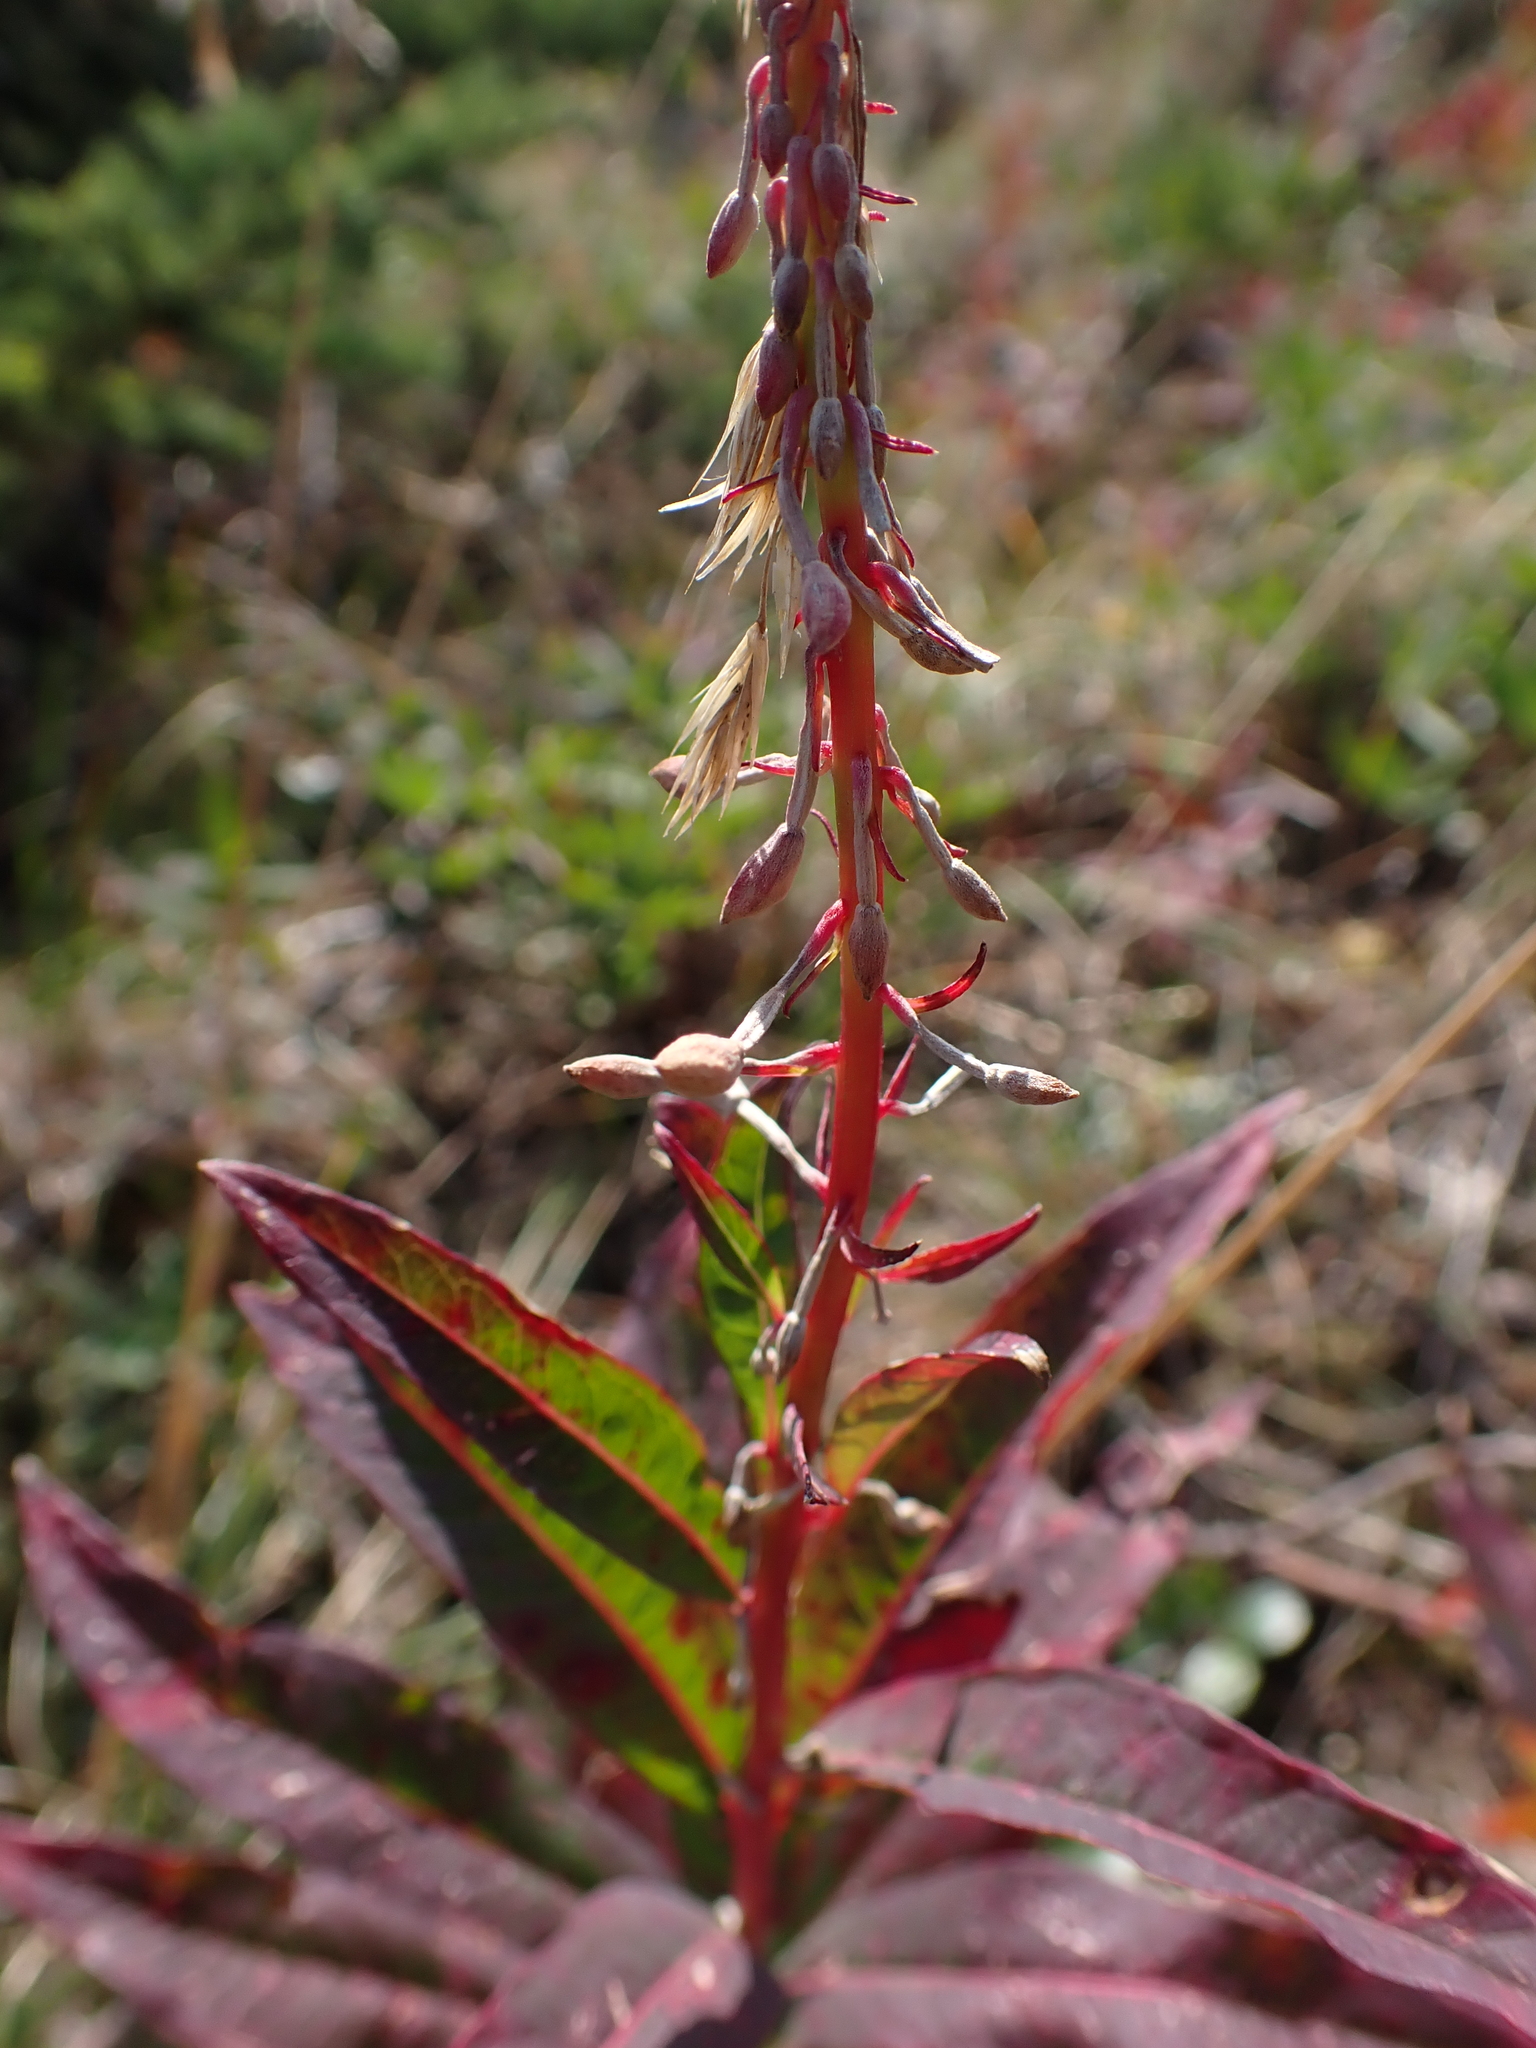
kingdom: Plantae
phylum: Tracheophyta
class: Magnoliopsida
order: Myrtales
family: Onagraceae
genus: Chamaenerion
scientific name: Chamaenerion angustifolium
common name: Fireweed
